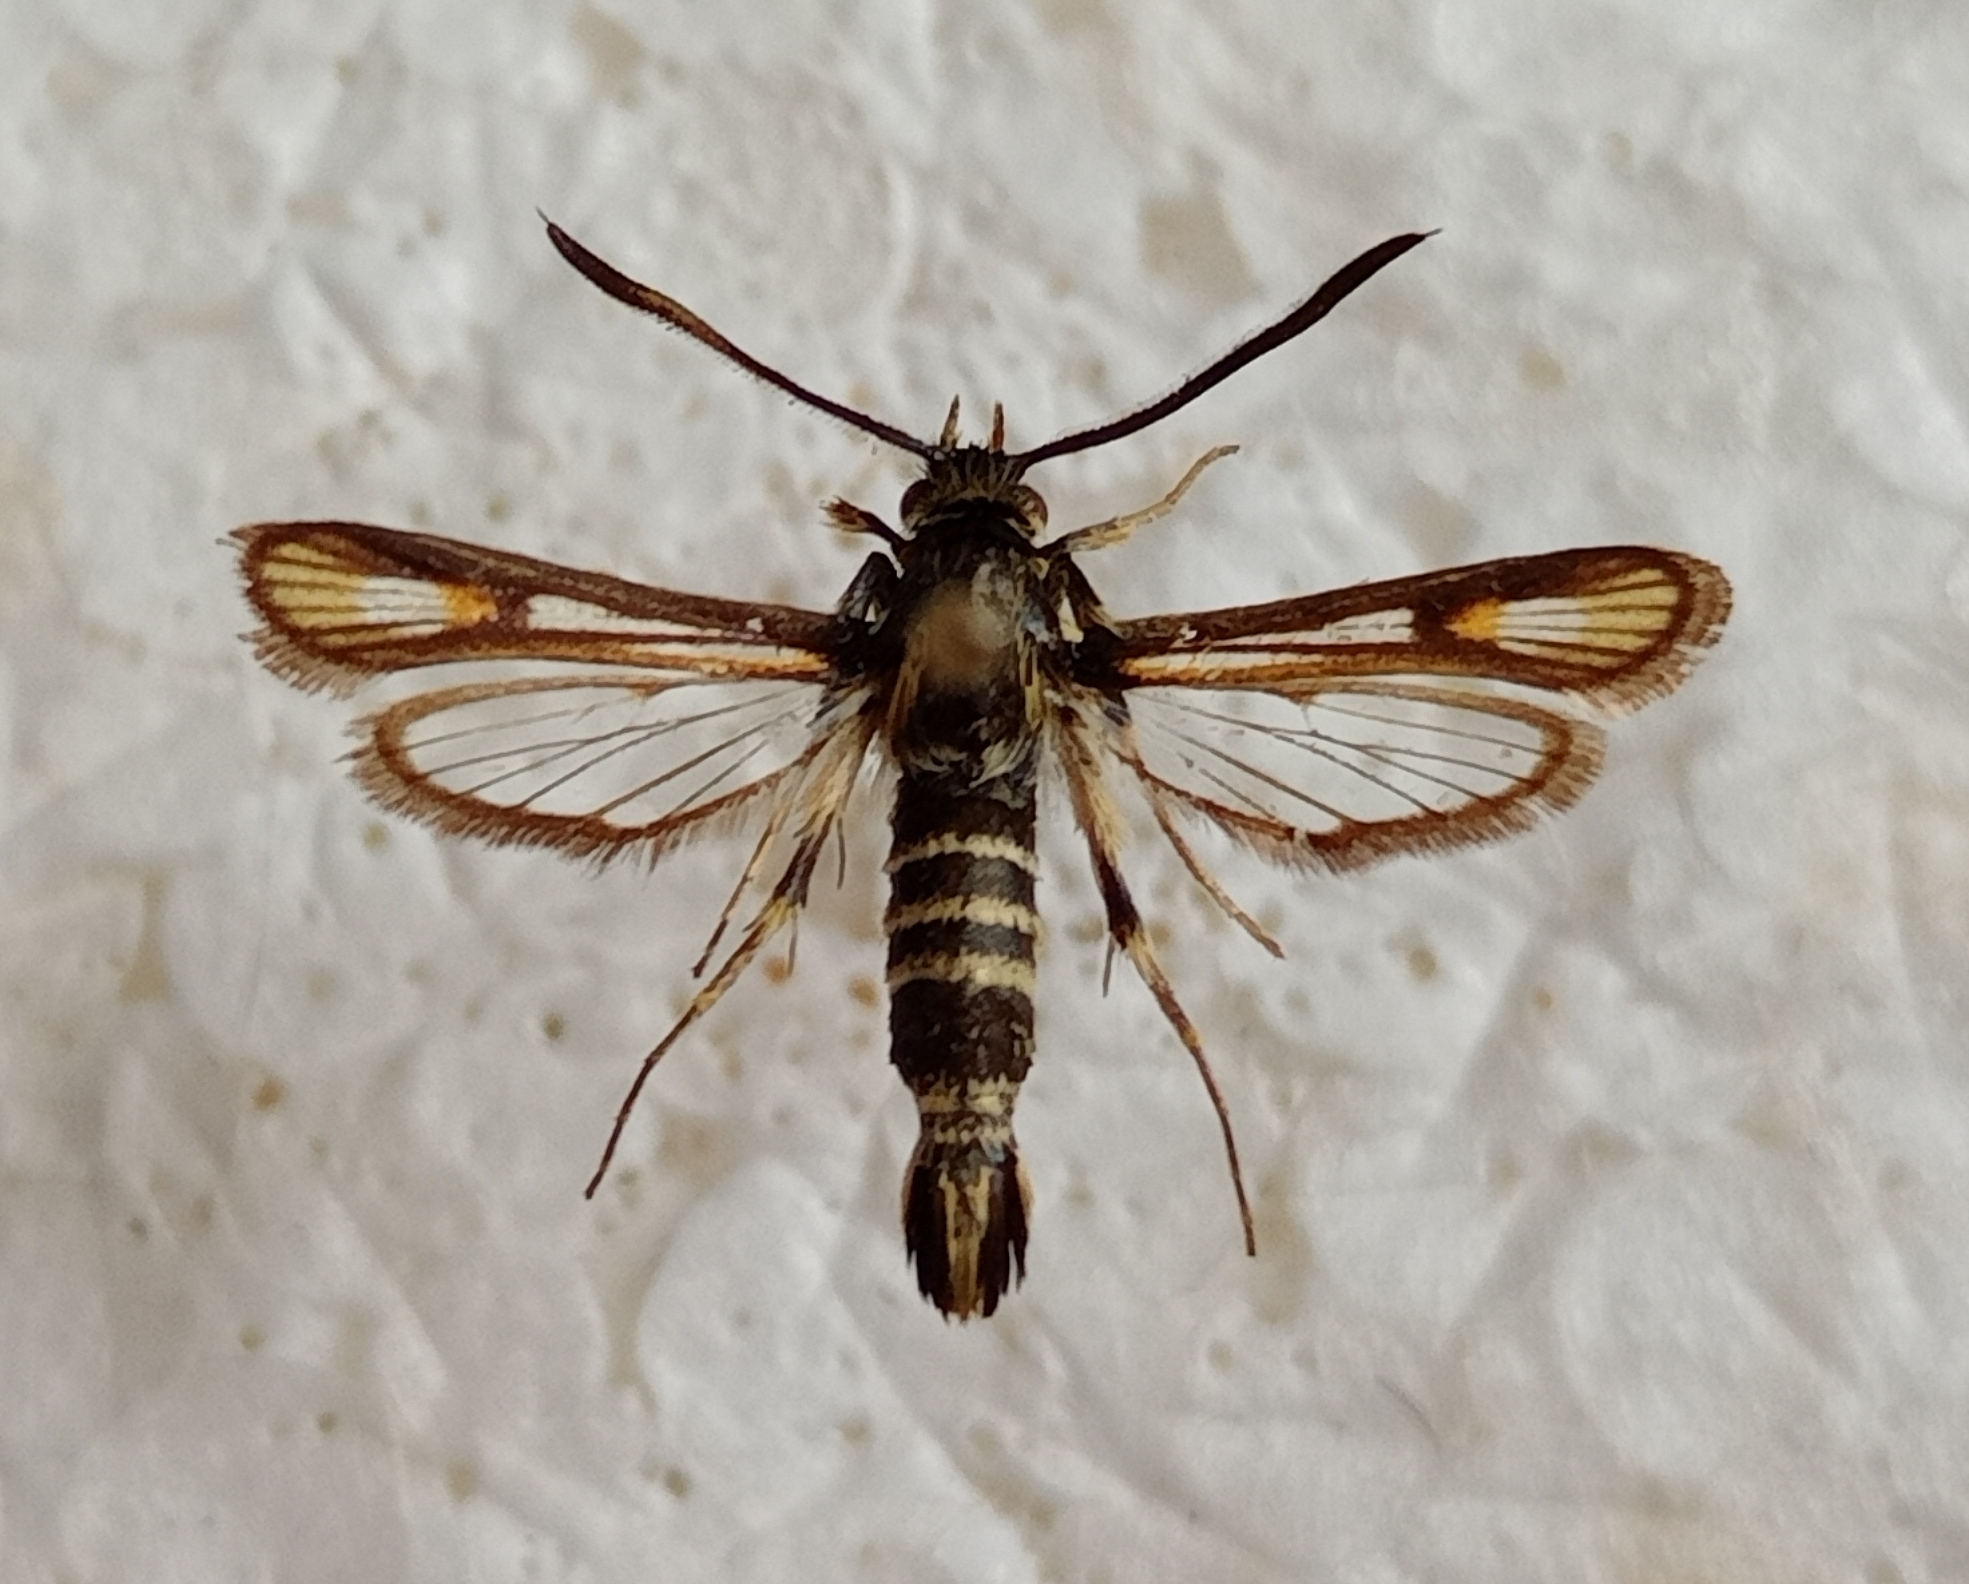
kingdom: Animalia
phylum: Arthropoda
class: Insecta
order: Lepidoptera
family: Sesiidae
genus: Bembecia
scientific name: Bembecia albanensis
